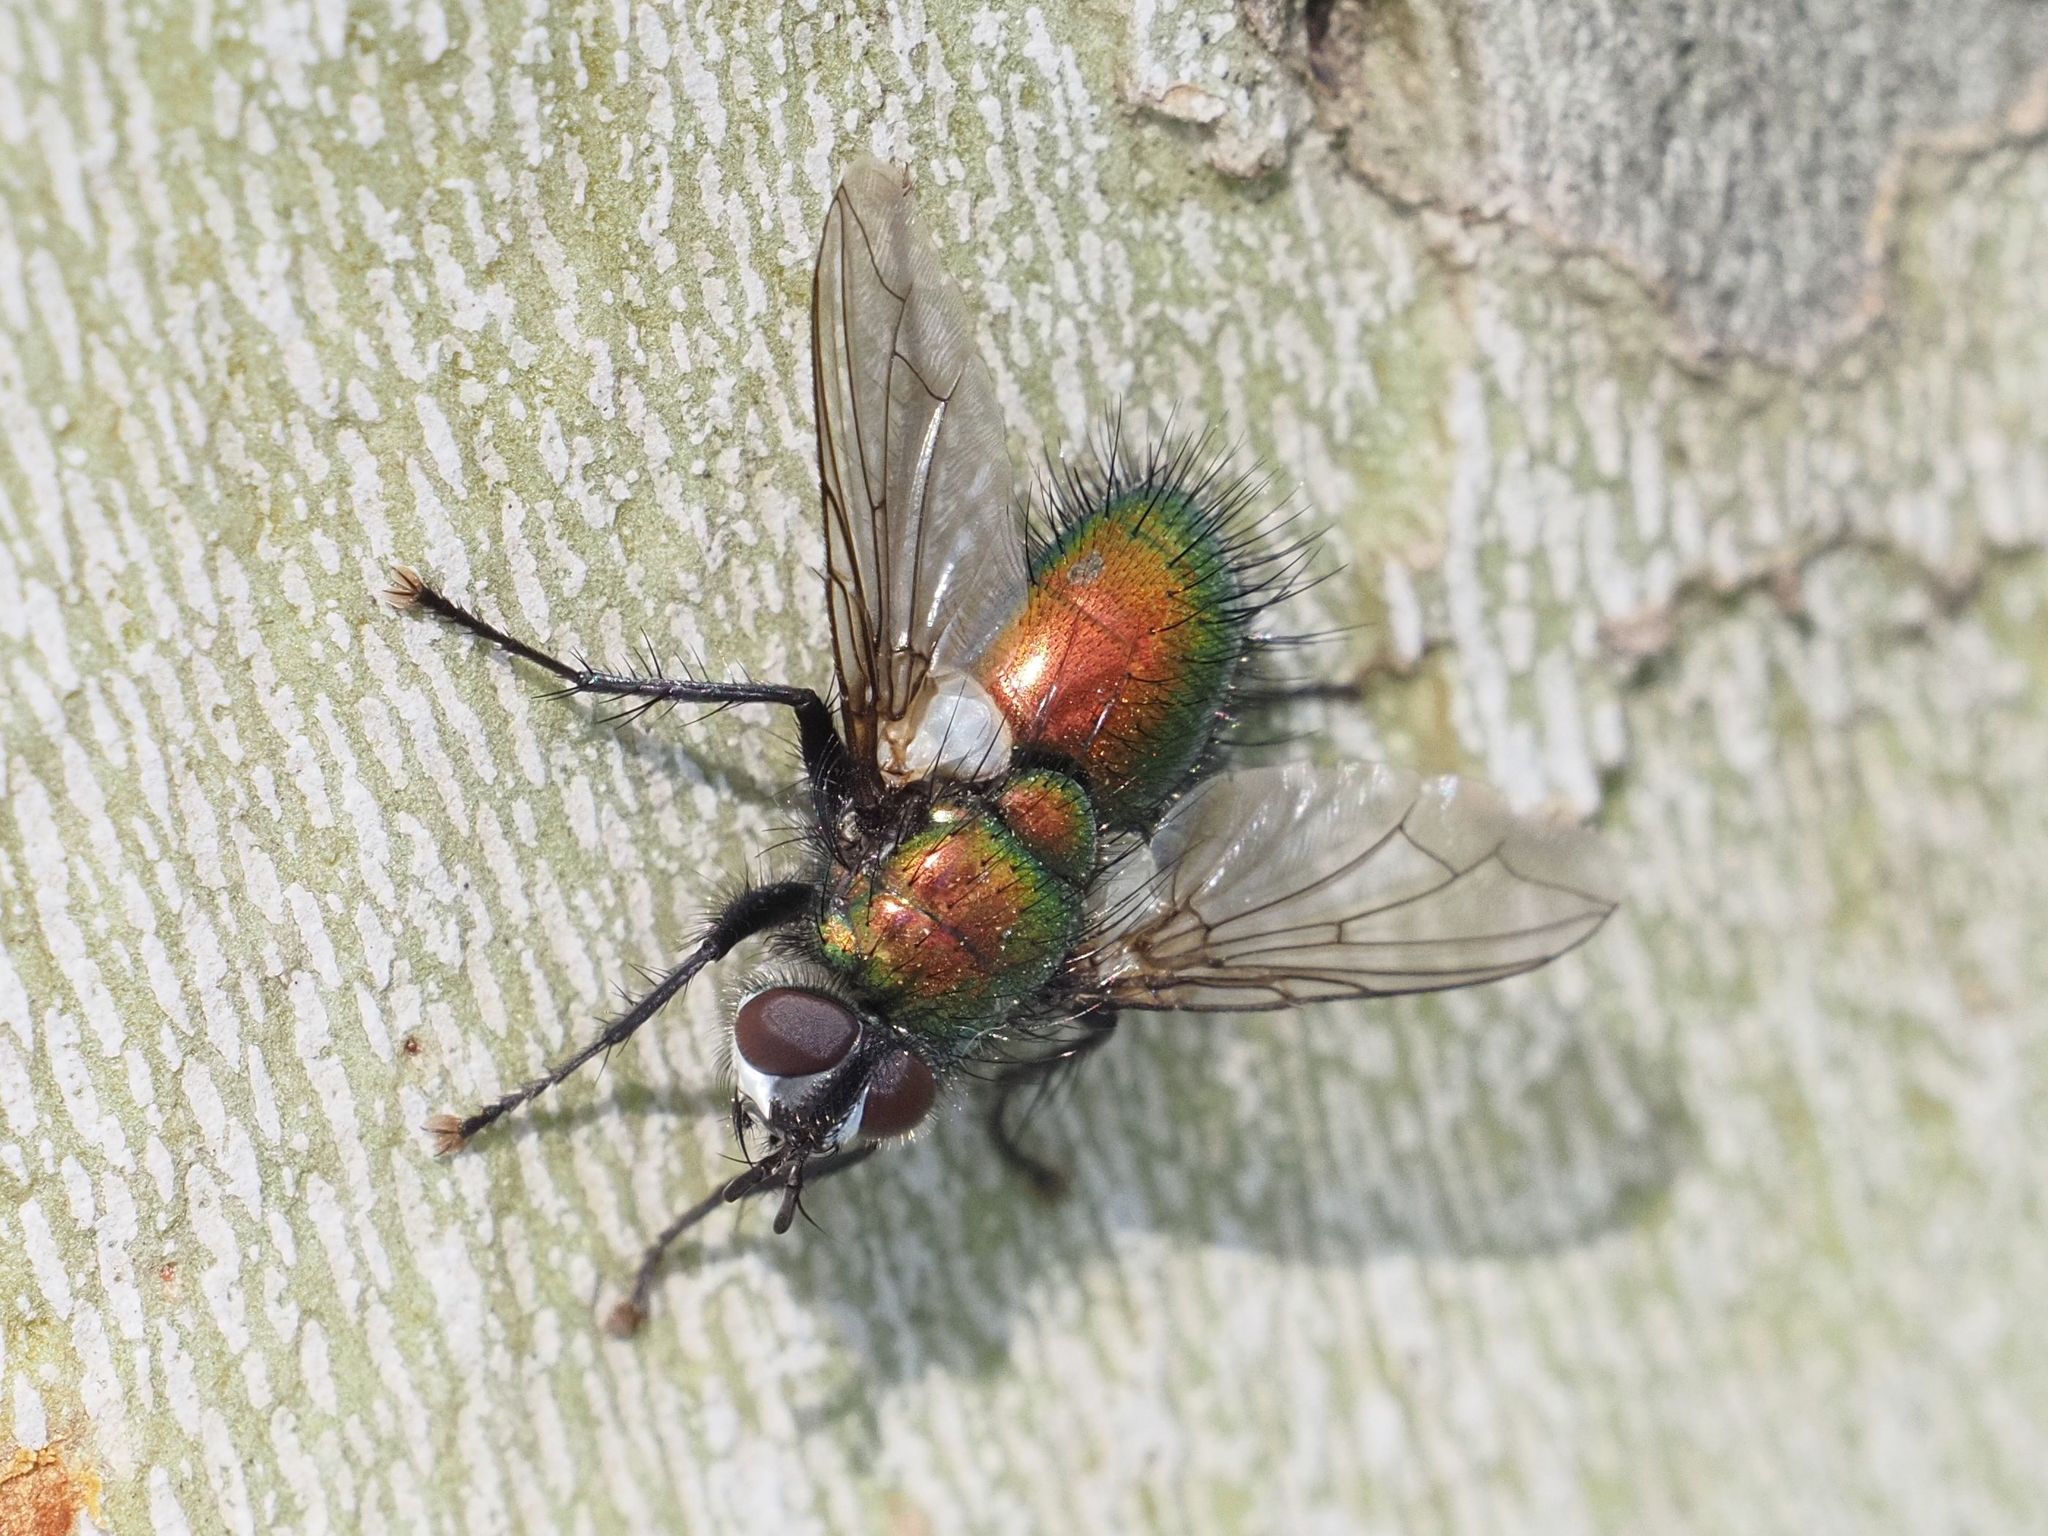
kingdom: Animalia
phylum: Arthropoda
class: Insecta
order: Diptera
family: Tachinidae
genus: Gymnocheta
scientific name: Gymnocheta viridis
